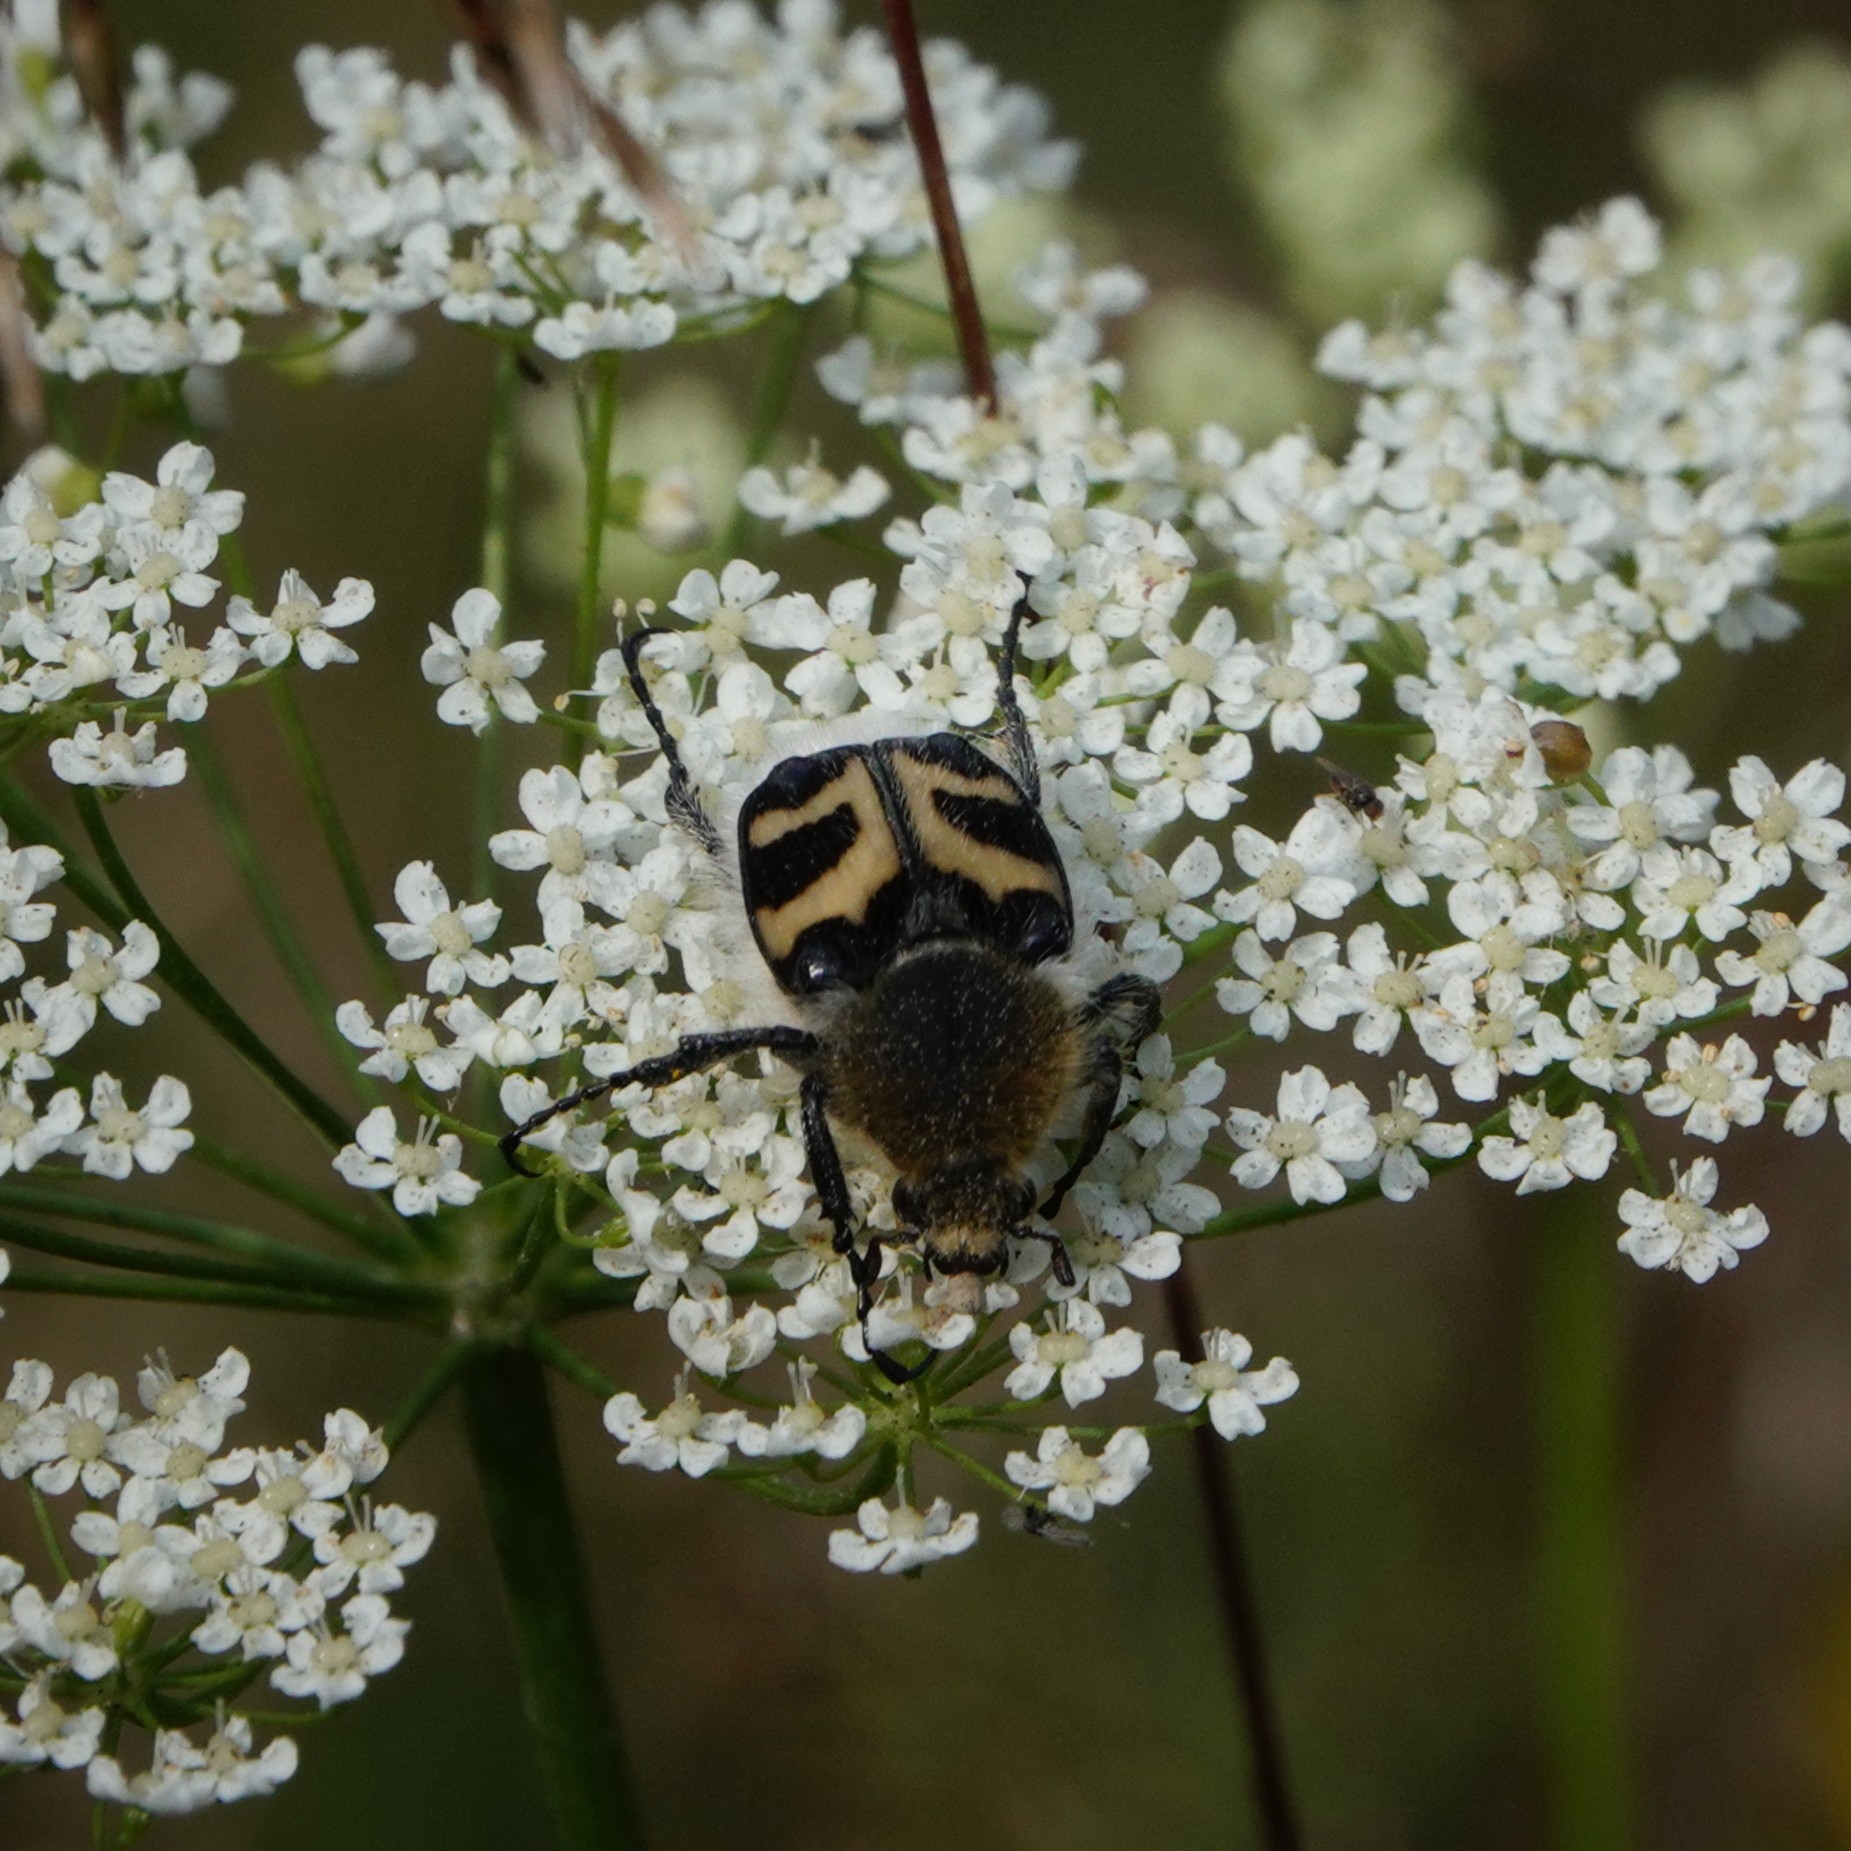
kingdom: Animalia
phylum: Arthropoda
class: Insecta
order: Coleoptera
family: Scarabaeidae
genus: Trichius
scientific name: Trichius fasciatus
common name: Bee beetle
